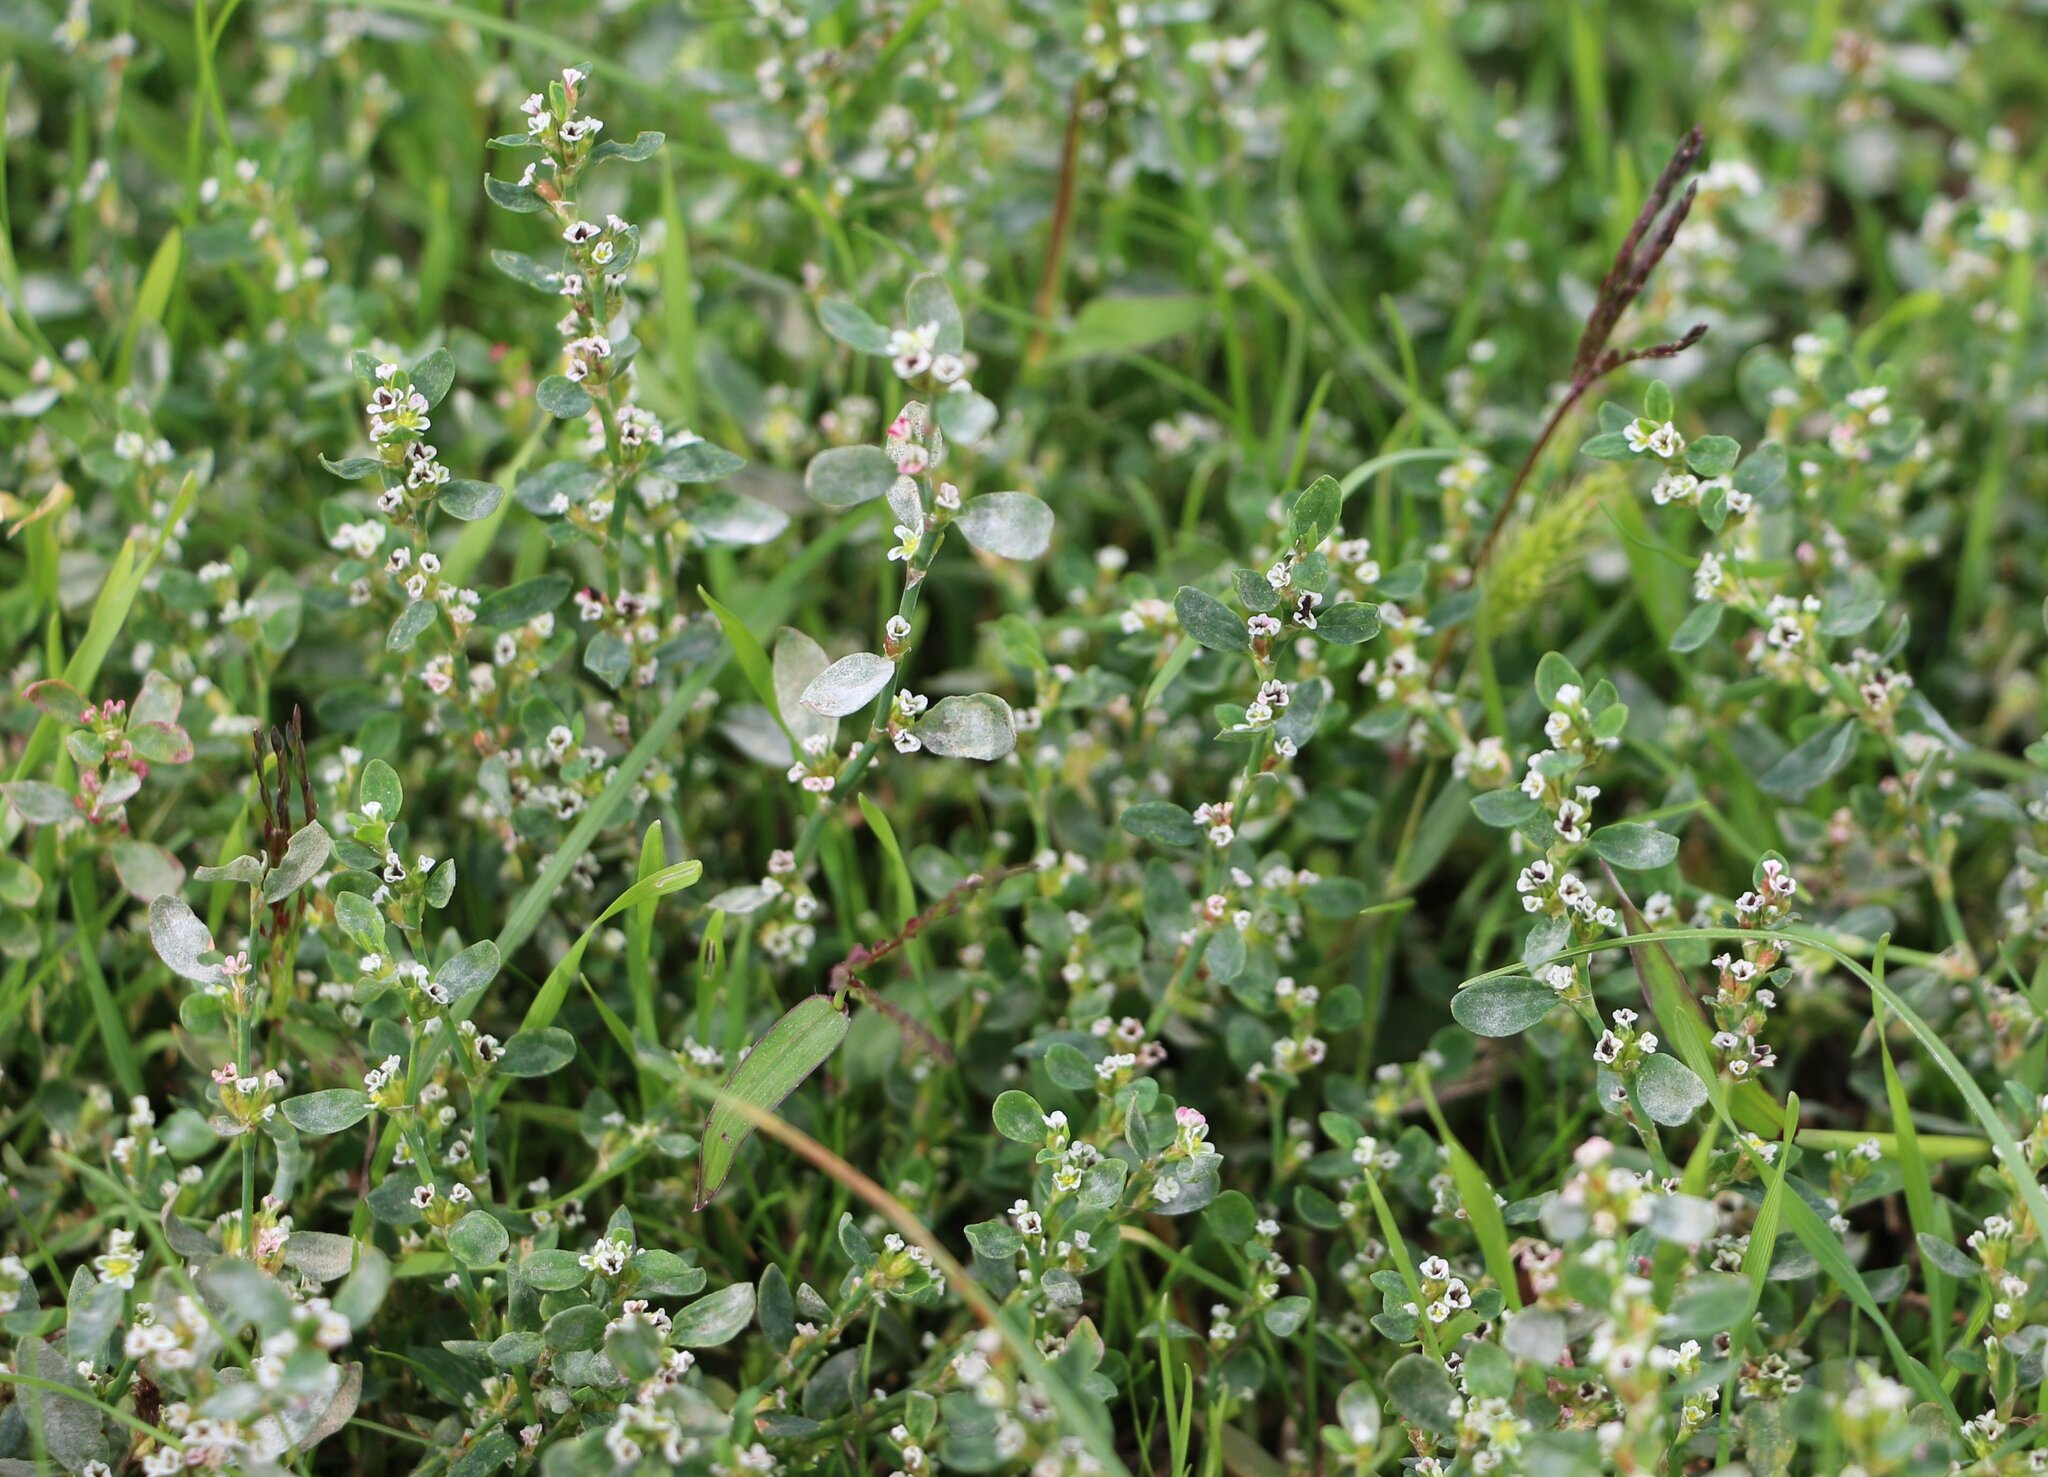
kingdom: Plantae
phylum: Tracheophyta
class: Magnoliopsida
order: Caryophyllales
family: Polygonaceae
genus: Polygonum
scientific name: Polygonum arenastrum
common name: Equal-leaved knotgrass
